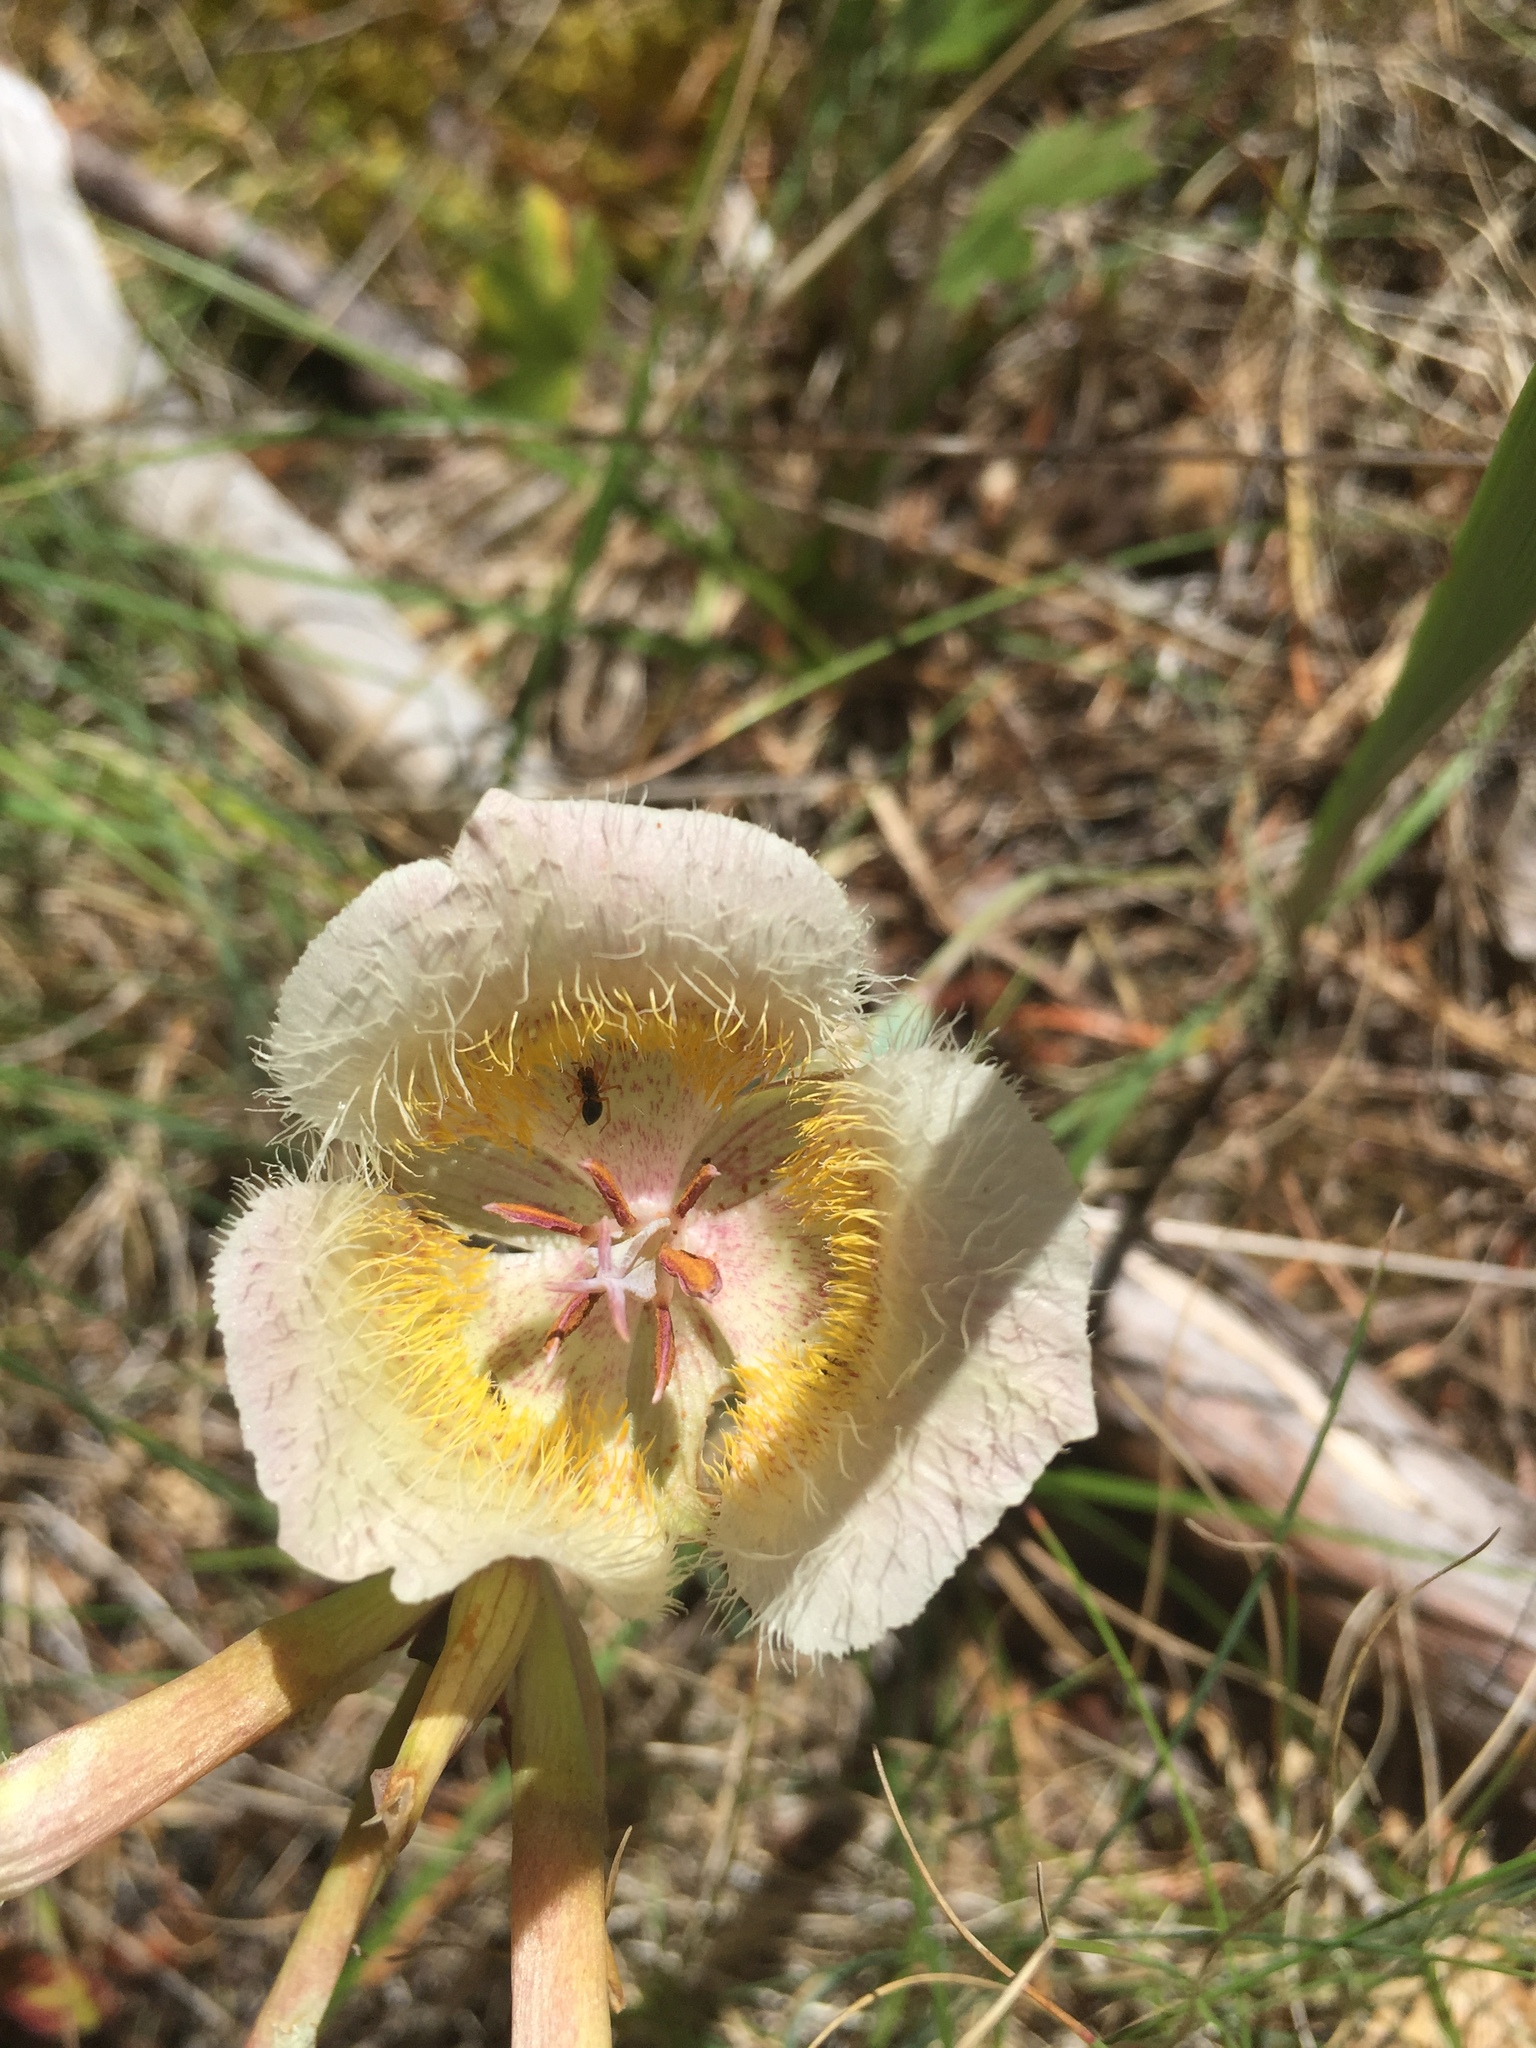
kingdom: Plantae
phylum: Tracheophyta
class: Liliopsida
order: Liliales
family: Liliaceae
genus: Calochortus
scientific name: Calochortus coxii
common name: Cox's mariposa-lily
